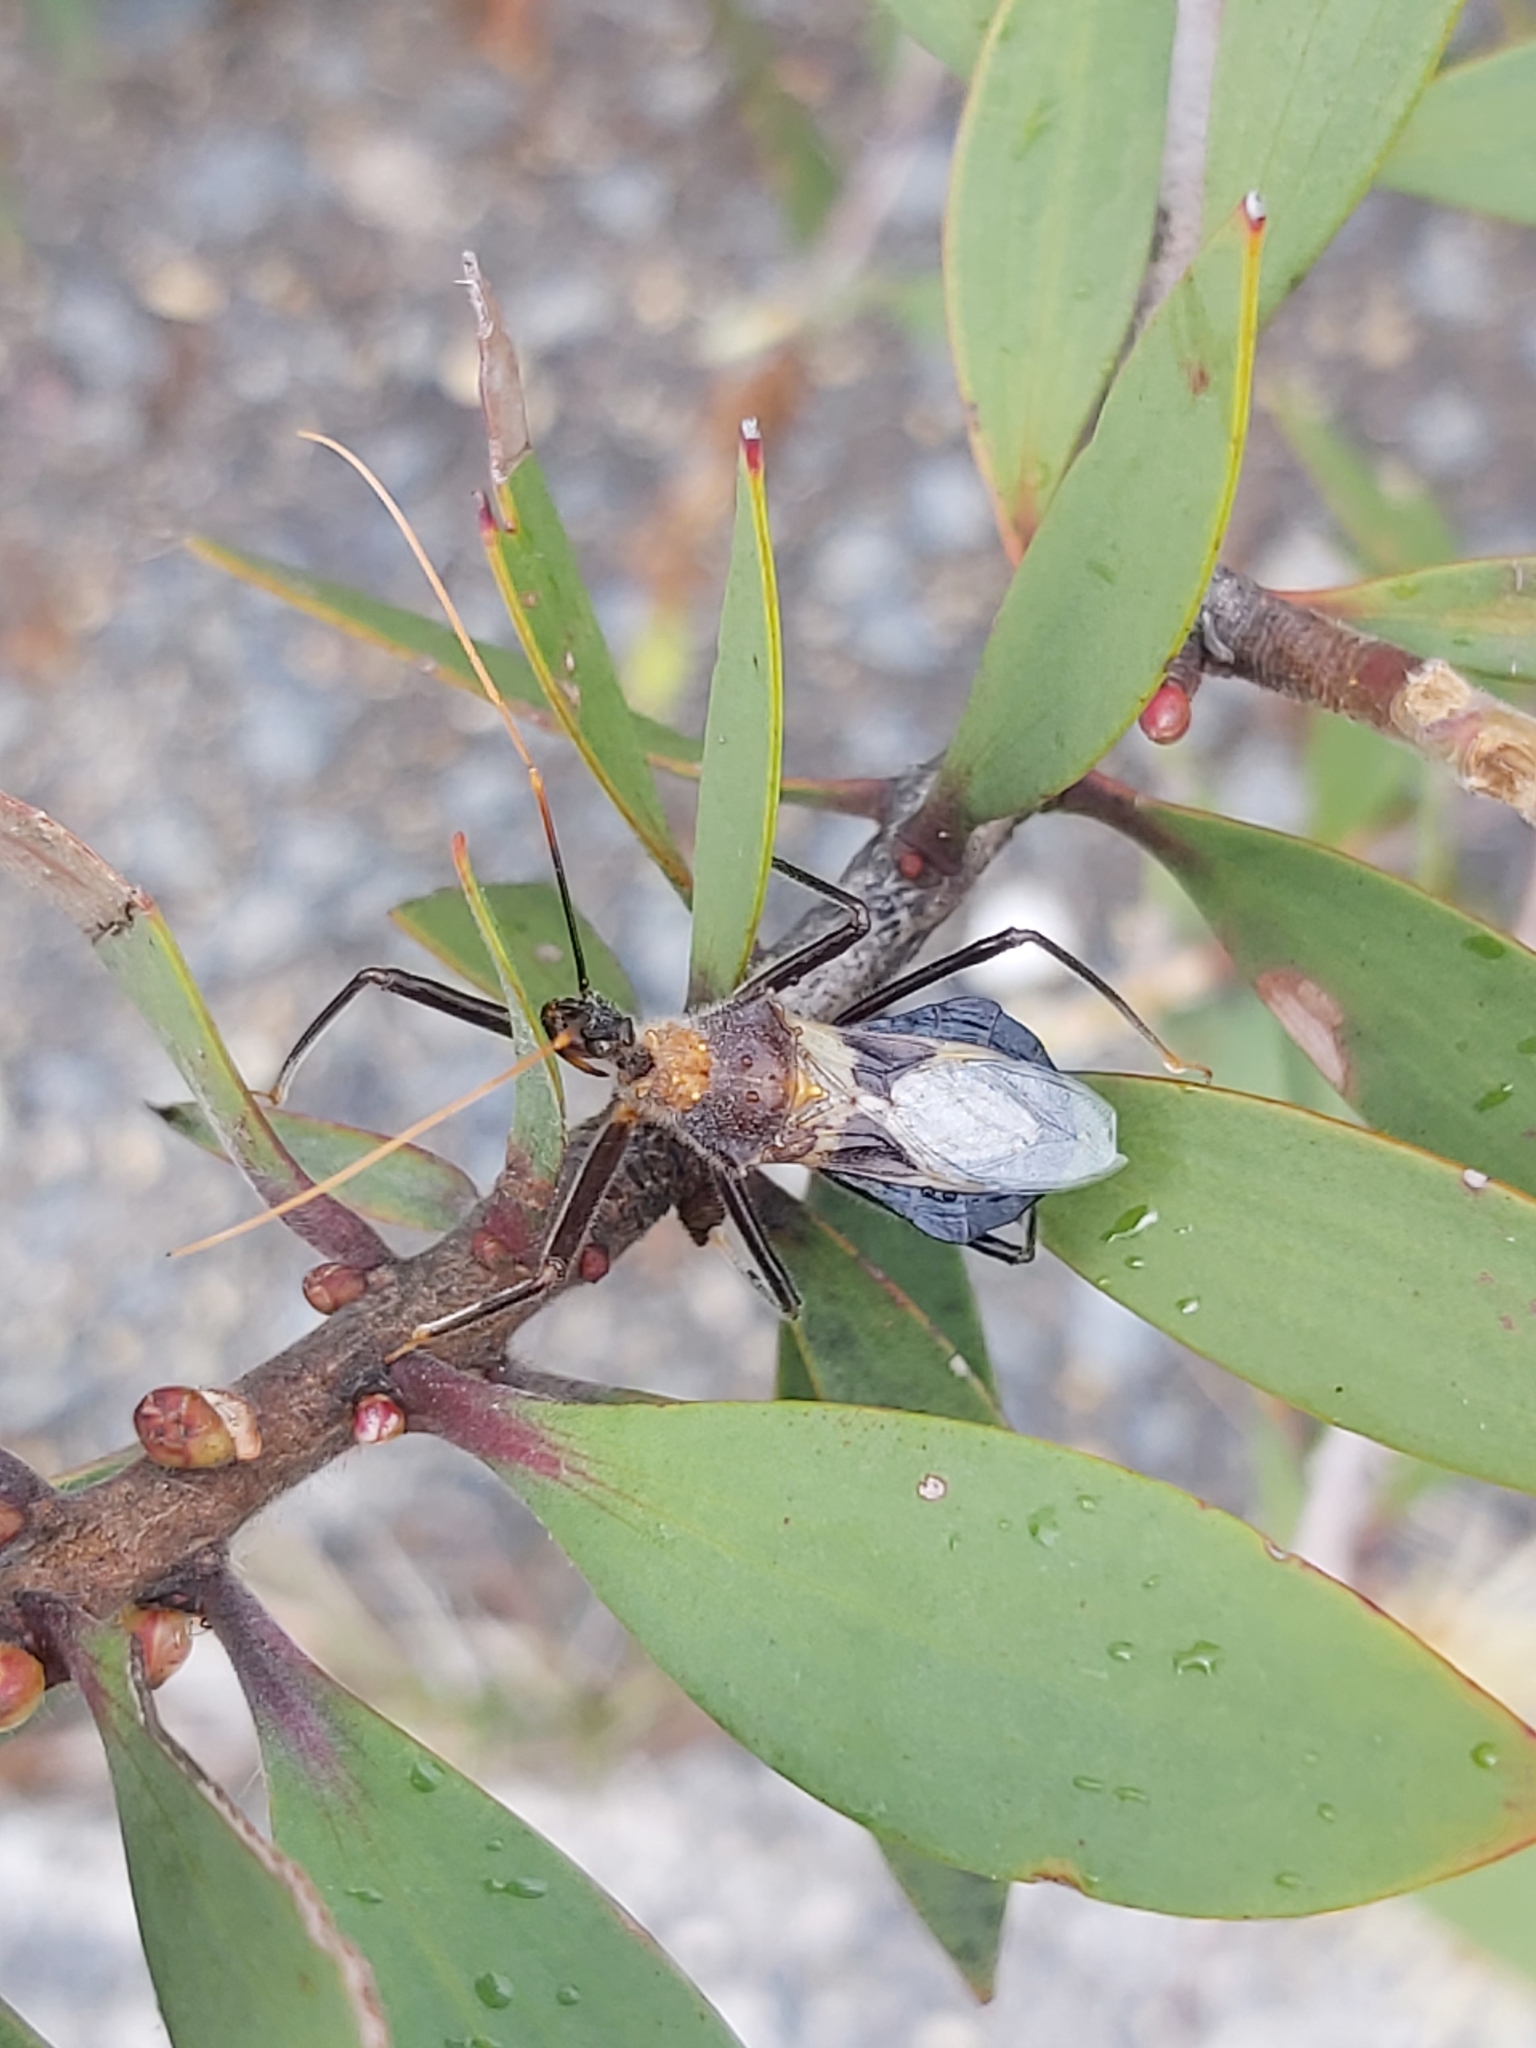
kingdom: Animalia
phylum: Arthropoda
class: Insecta
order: Hemiptera
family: Reduviidae
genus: Pristhesancus
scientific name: Pristhesancus chlamydatus
